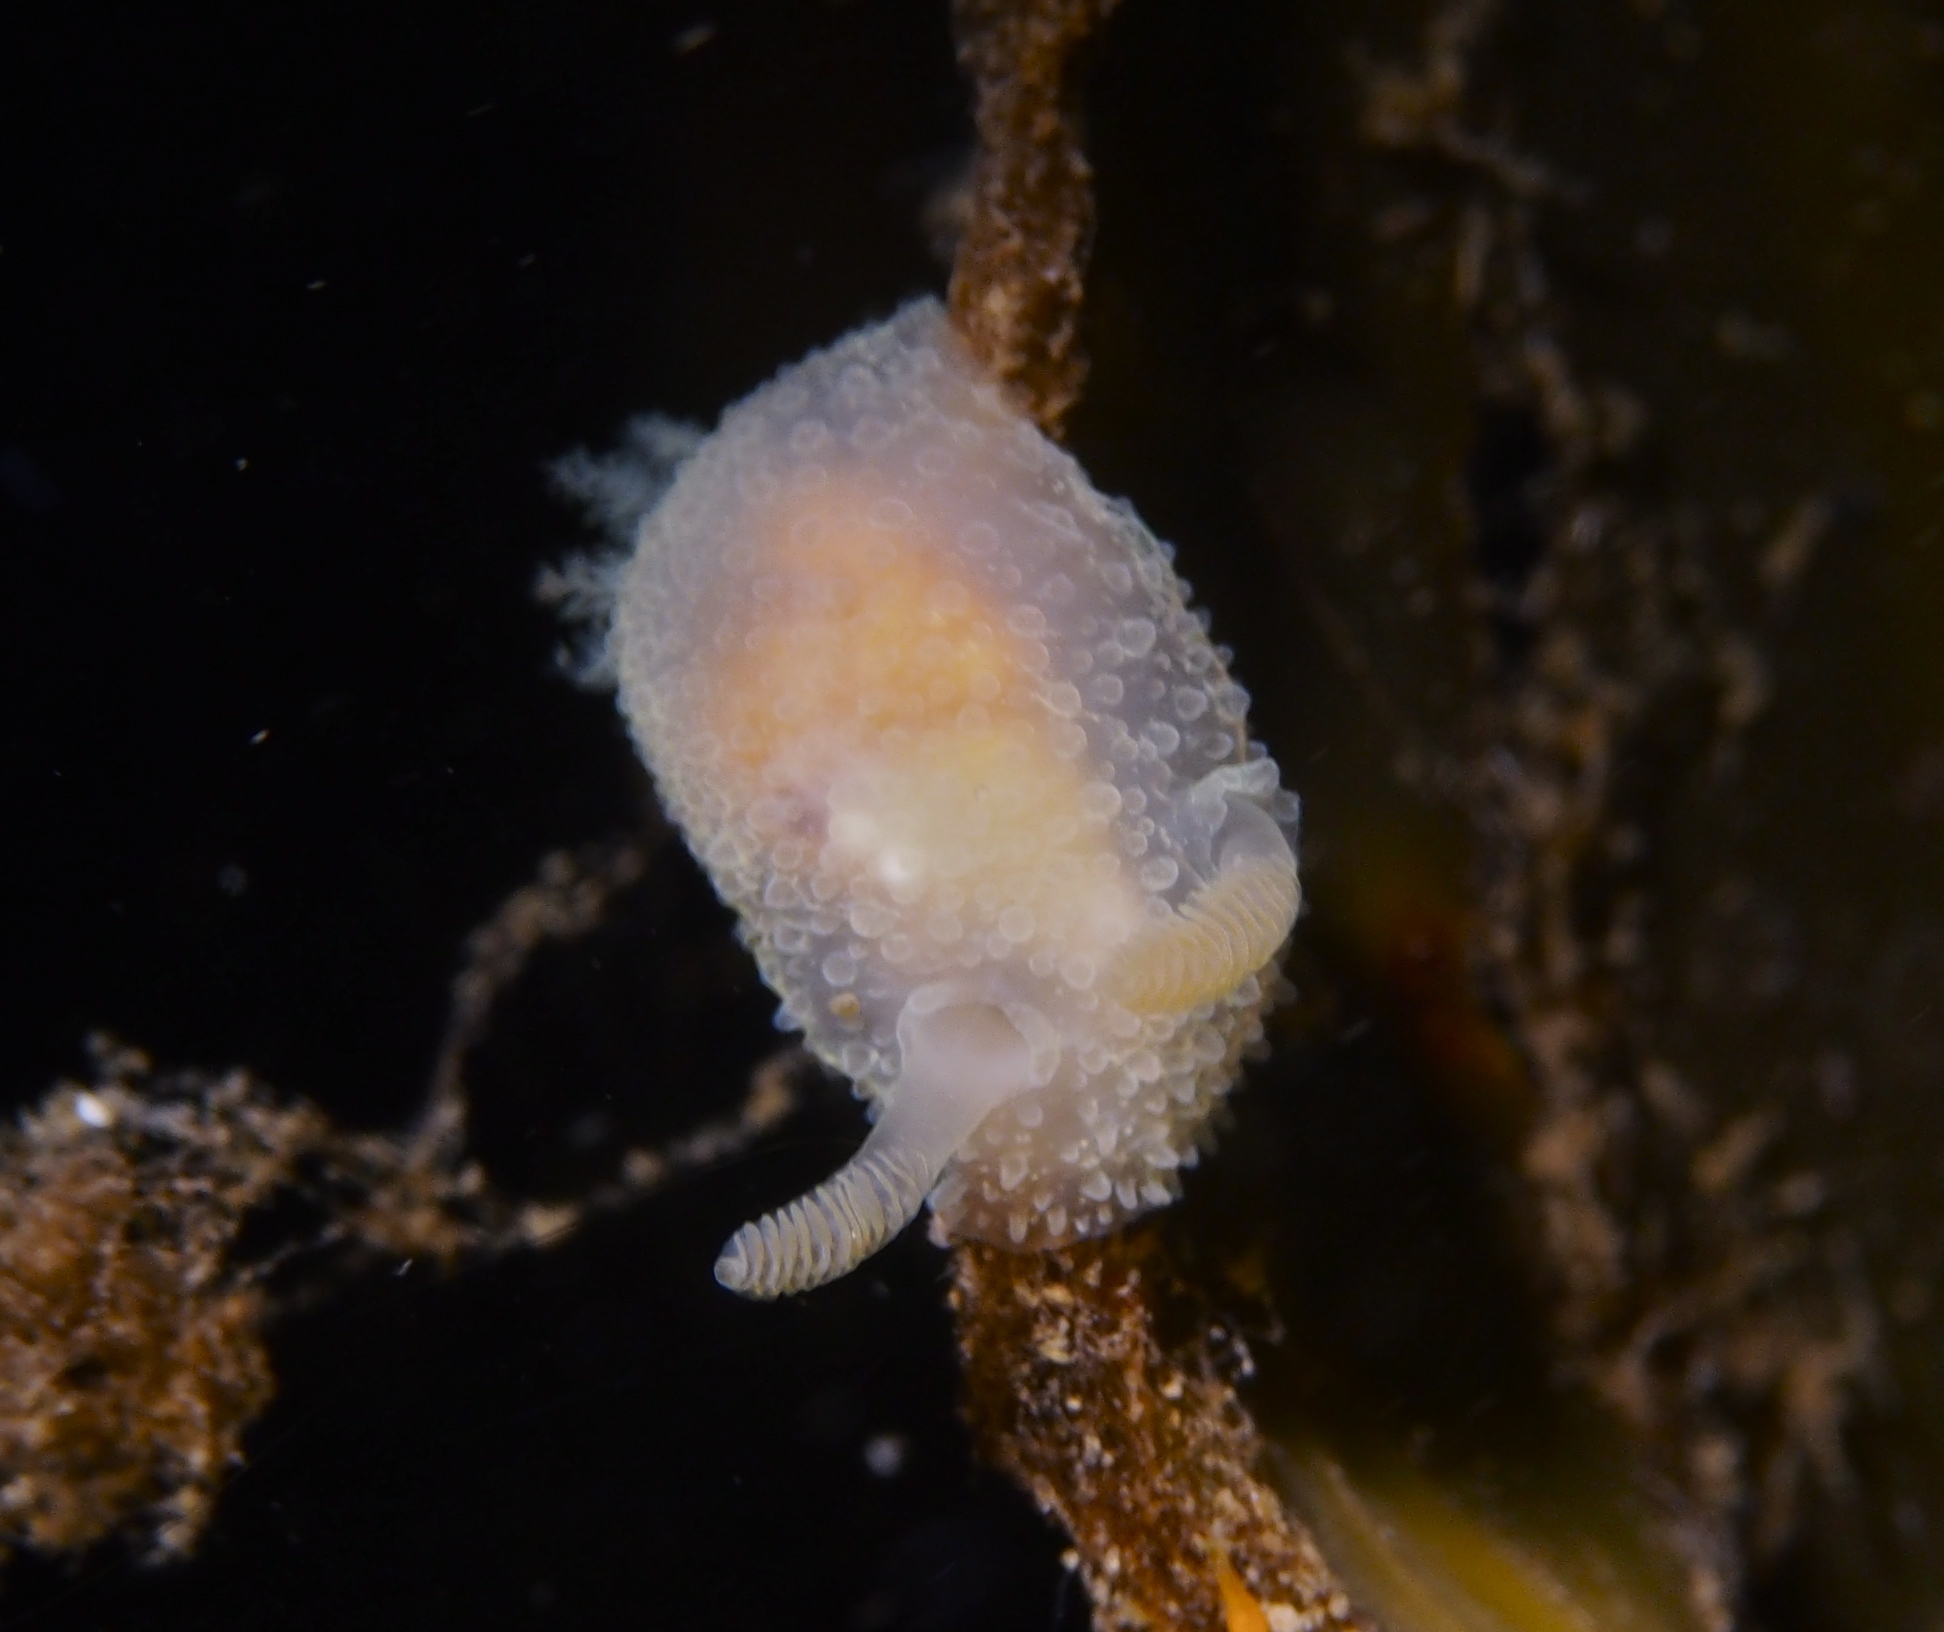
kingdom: Animalia
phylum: Mollusca
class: Gastropoda
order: Nudibranchia
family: Onchidorididae
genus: Acanthodoris
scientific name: Acanthodoris pilosa
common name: Hairy spiny doris
